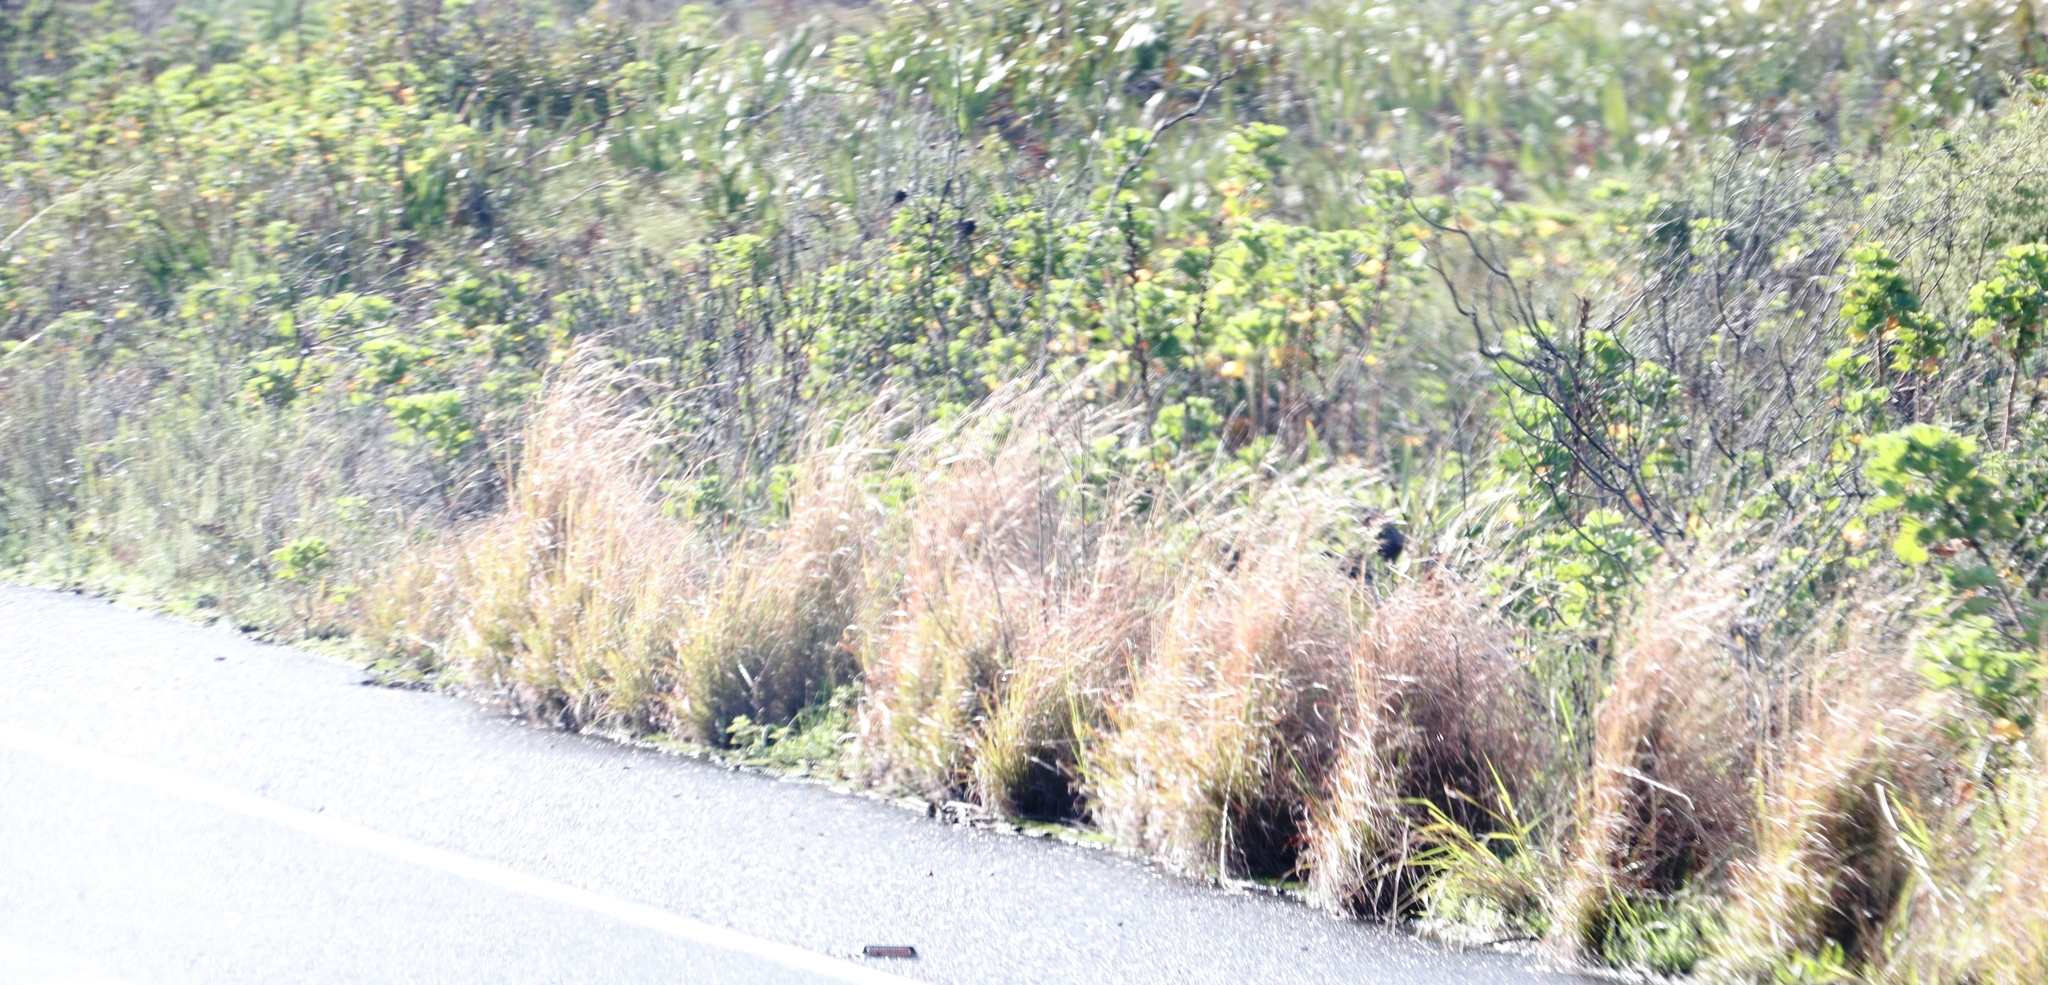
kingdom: Plantae
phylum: Tracheophyta
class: Liliopsida
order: Poales
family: Poaceae
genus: Hyparrhenia
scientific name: Hyparrhenia hirta
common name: Thatching grass
